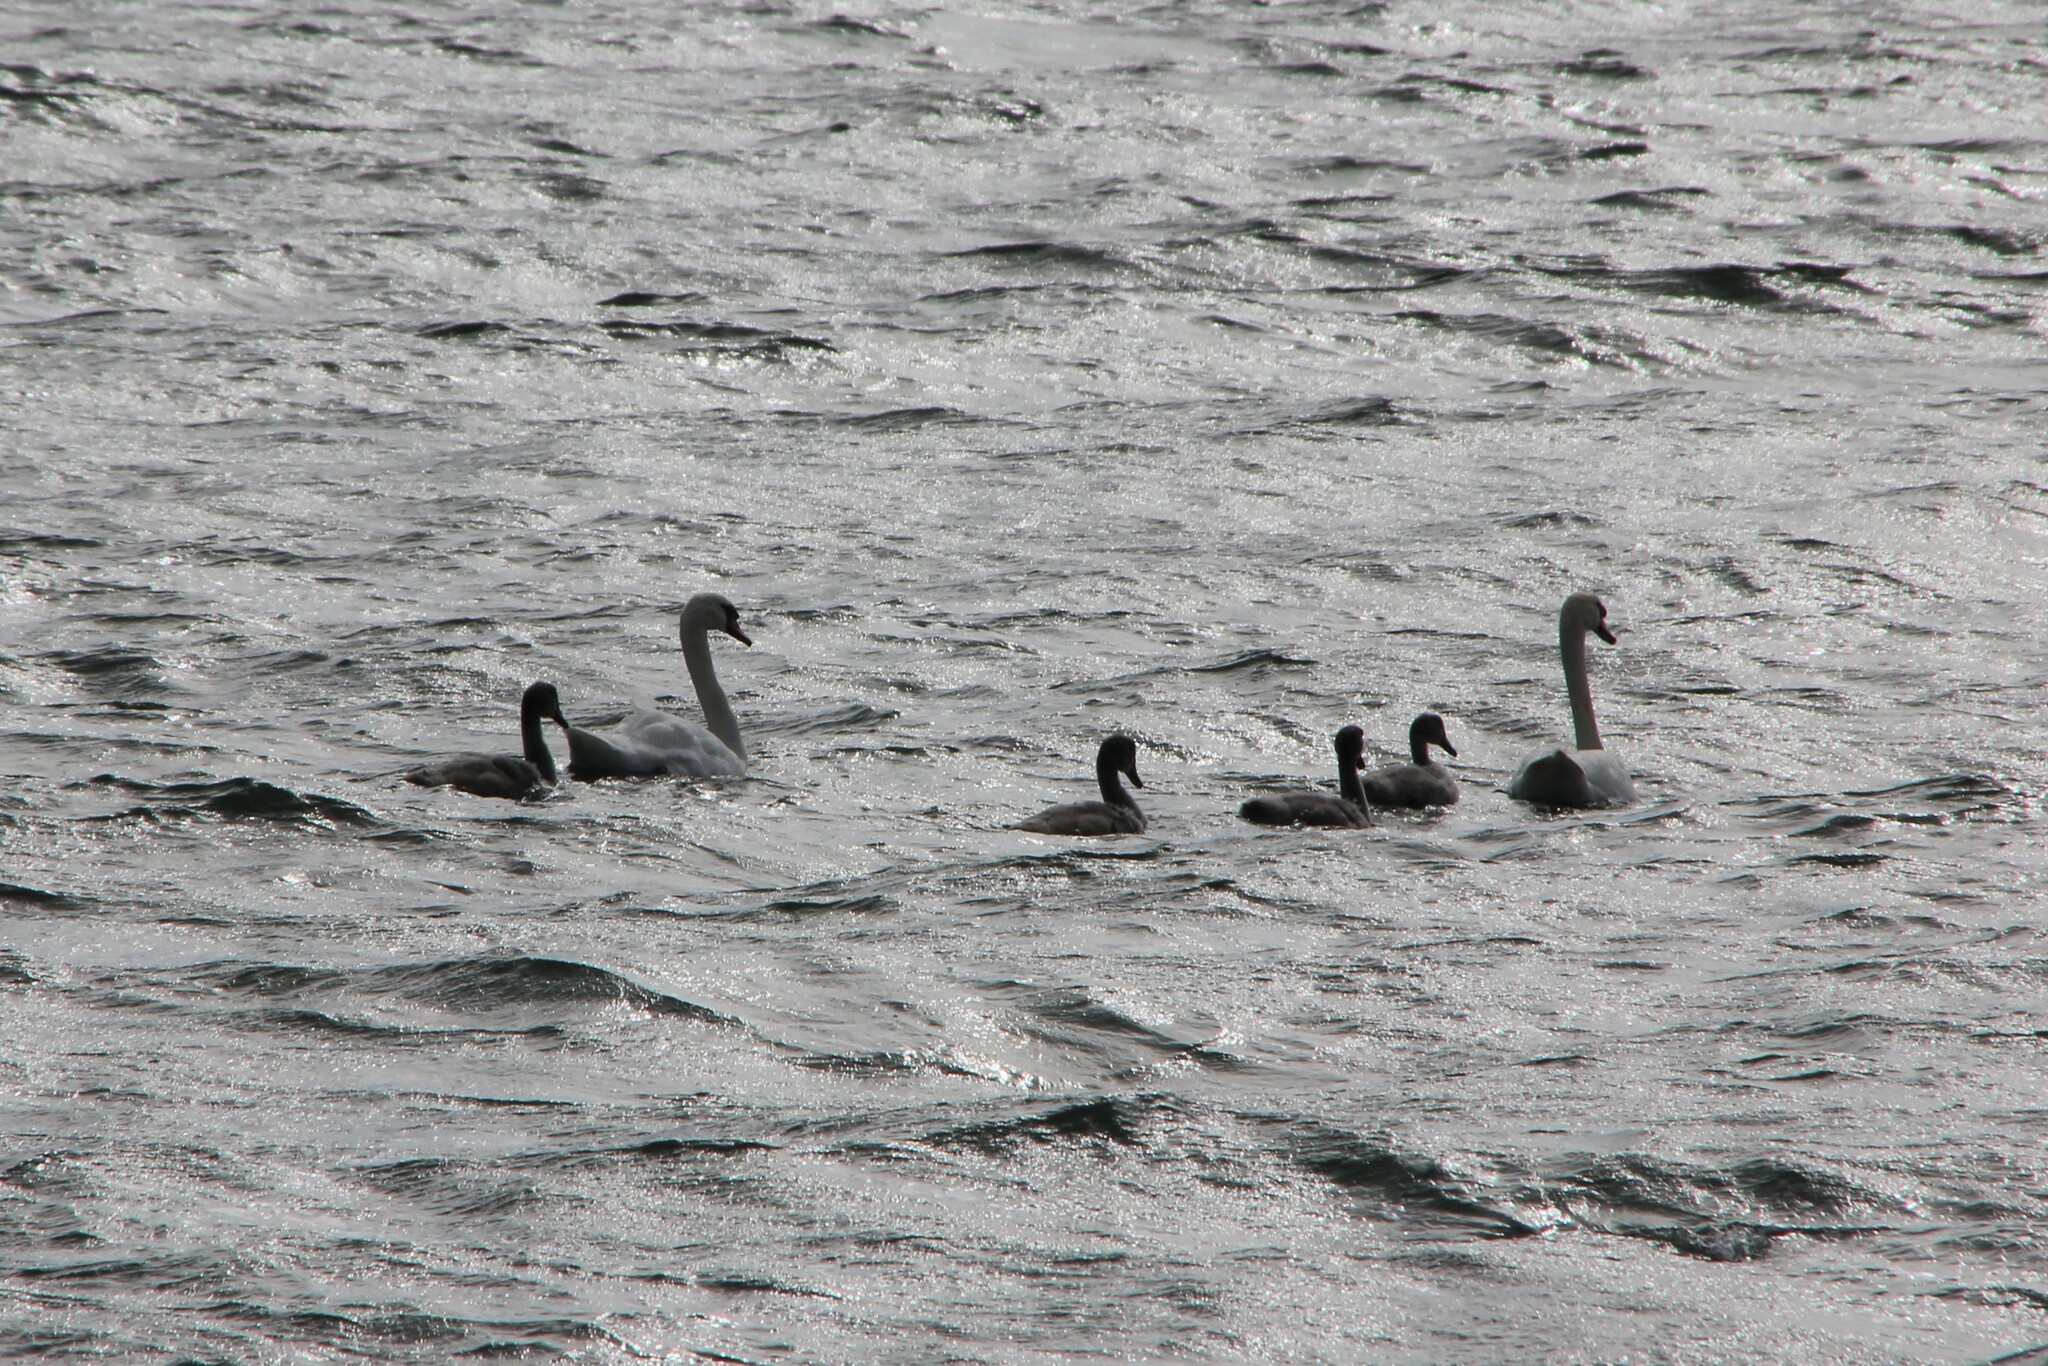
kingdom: Animalia
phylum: Chordata
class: Aves
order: Anseriformes
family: Anatidae
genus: Cygnus
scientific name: Cygnus olor
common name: Mute swan
